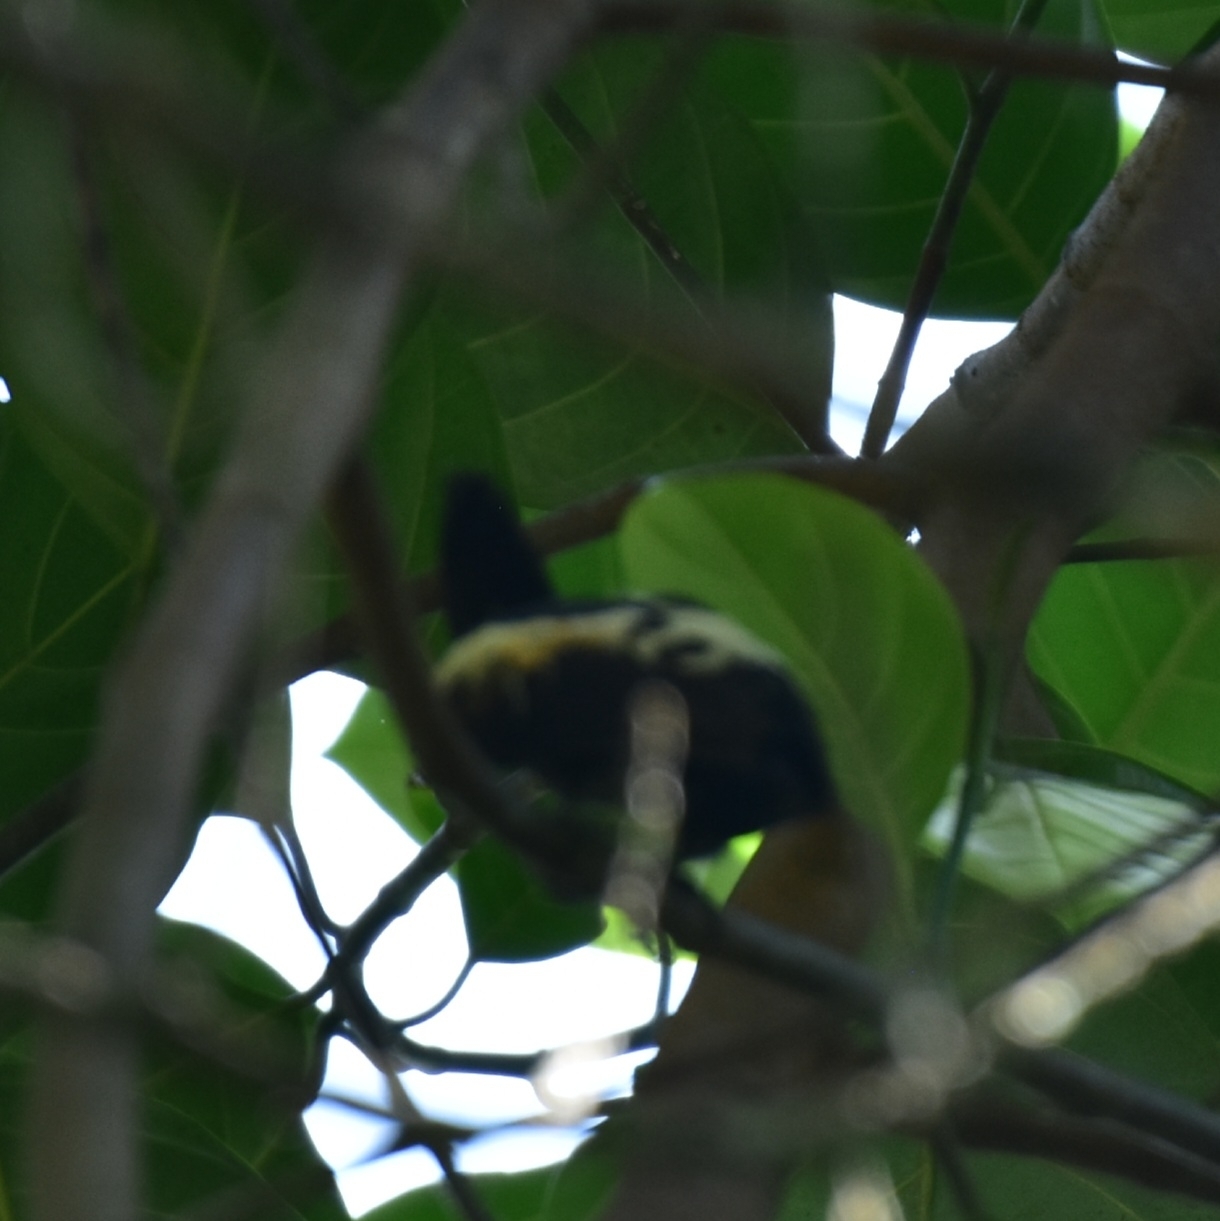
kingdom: Animalia
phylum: Chordata
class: Aves
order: Piciformes
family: Picidae
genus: Hemicircus
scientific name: Hemicircus canente
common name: Heart-spotted woodpecker
